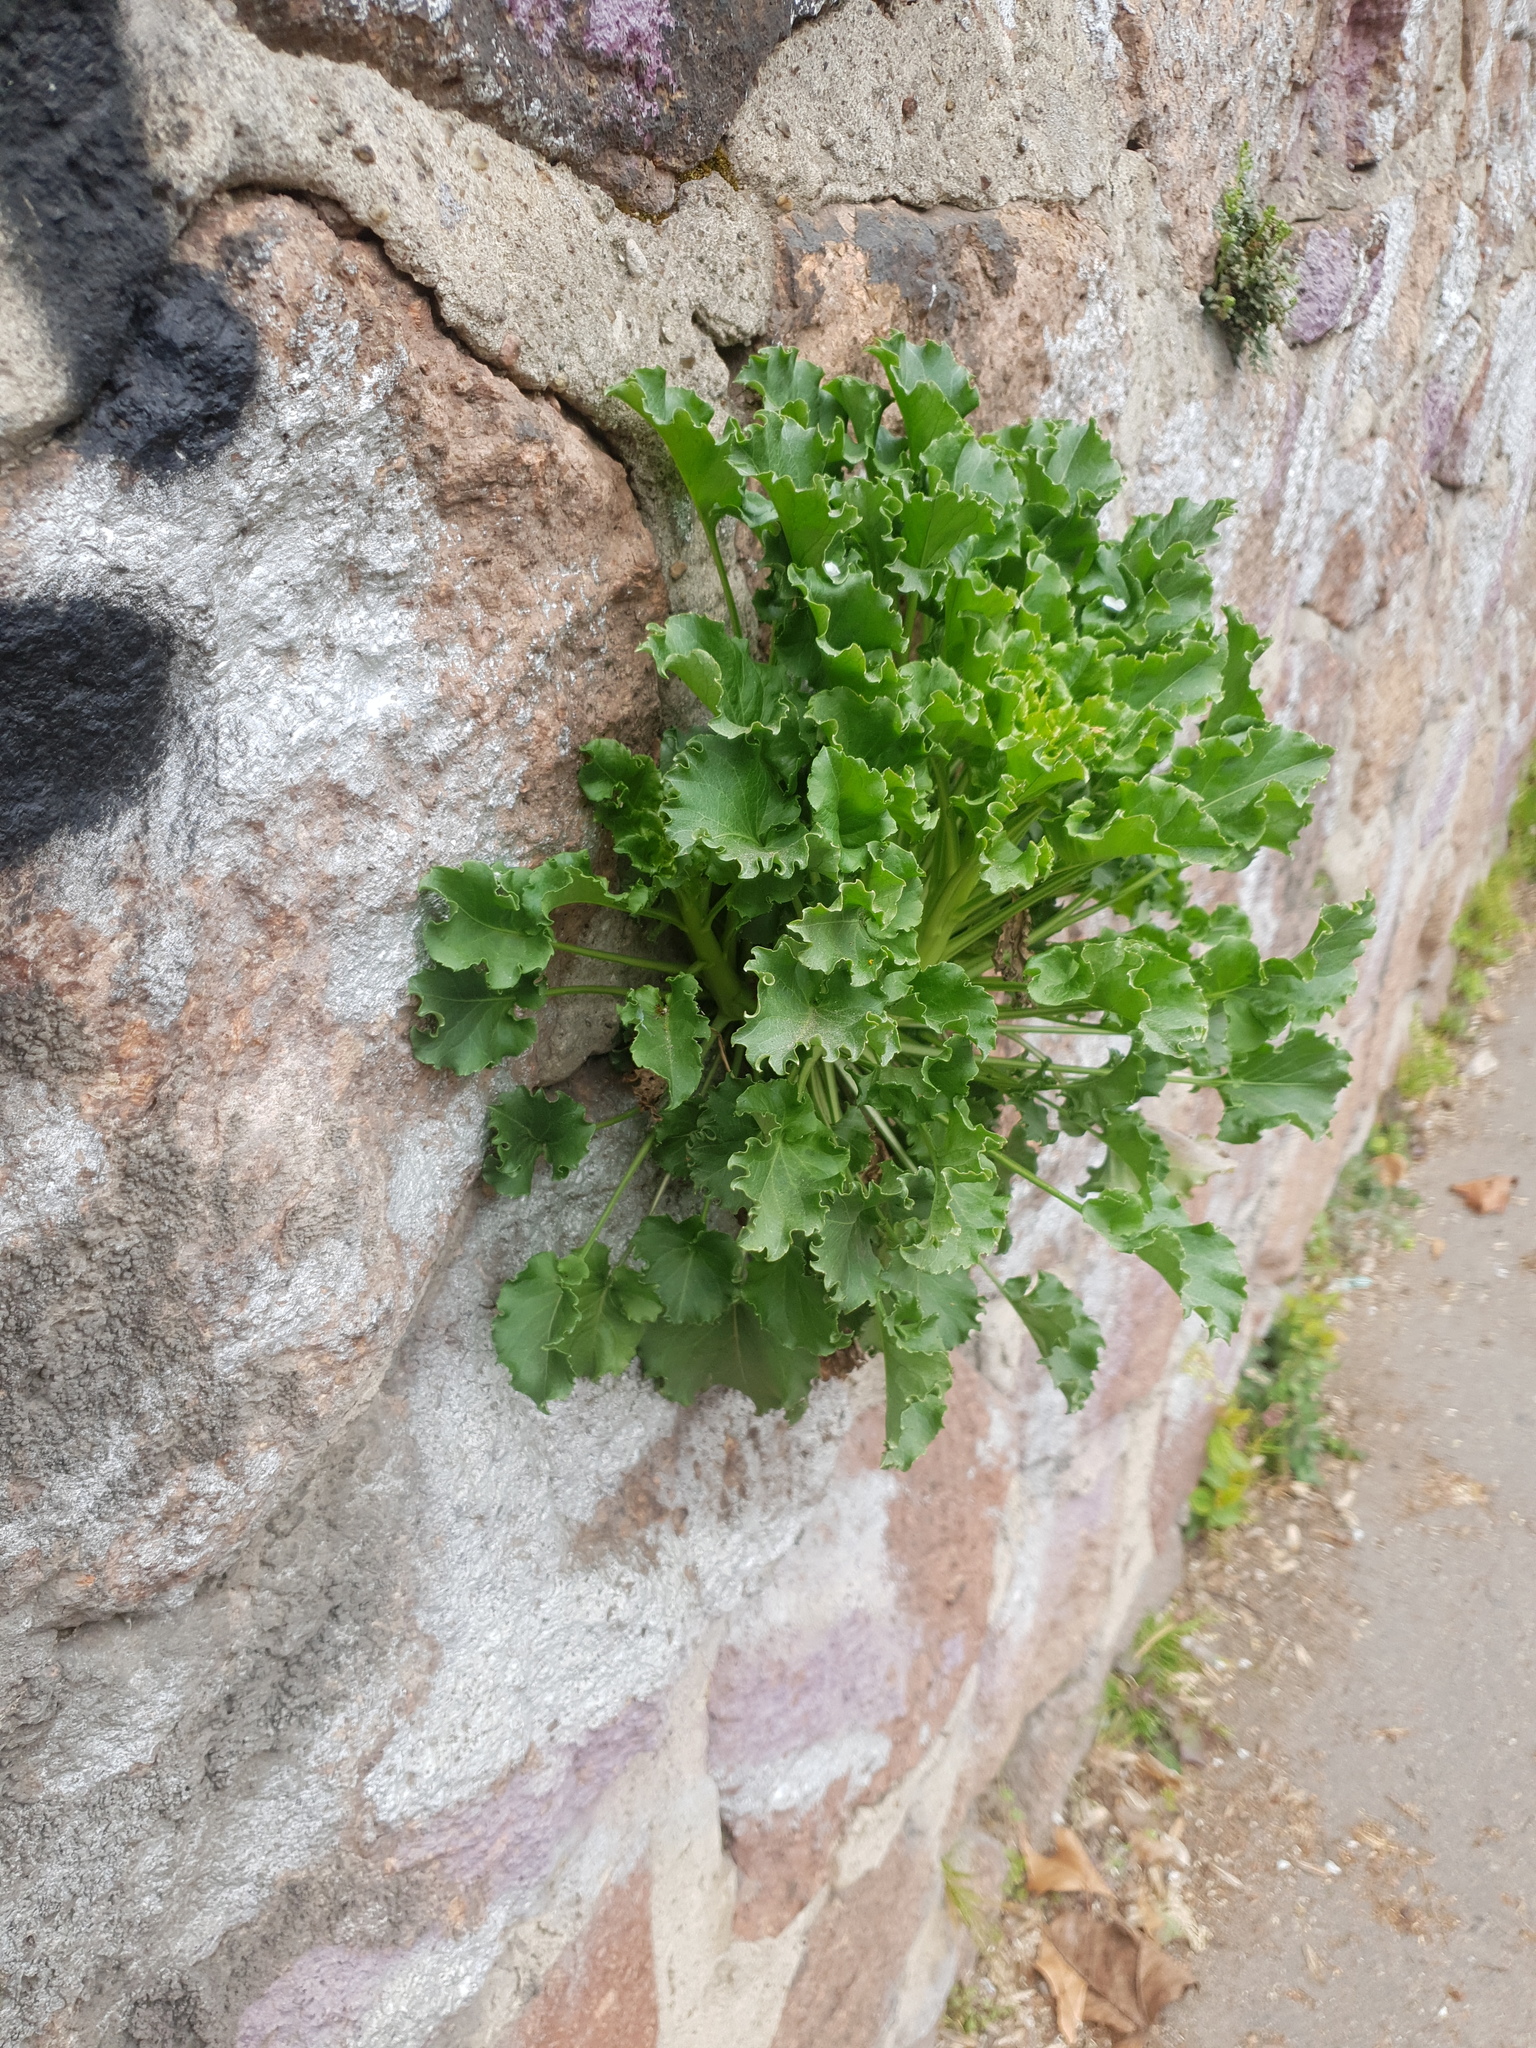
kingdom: Plantae
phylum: Tracheophyta
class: Magnoliopsida
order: Asterales
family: Campanulaceae
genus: Campanula
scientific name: Campanula pyramidalis
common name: Chimney bellflower
